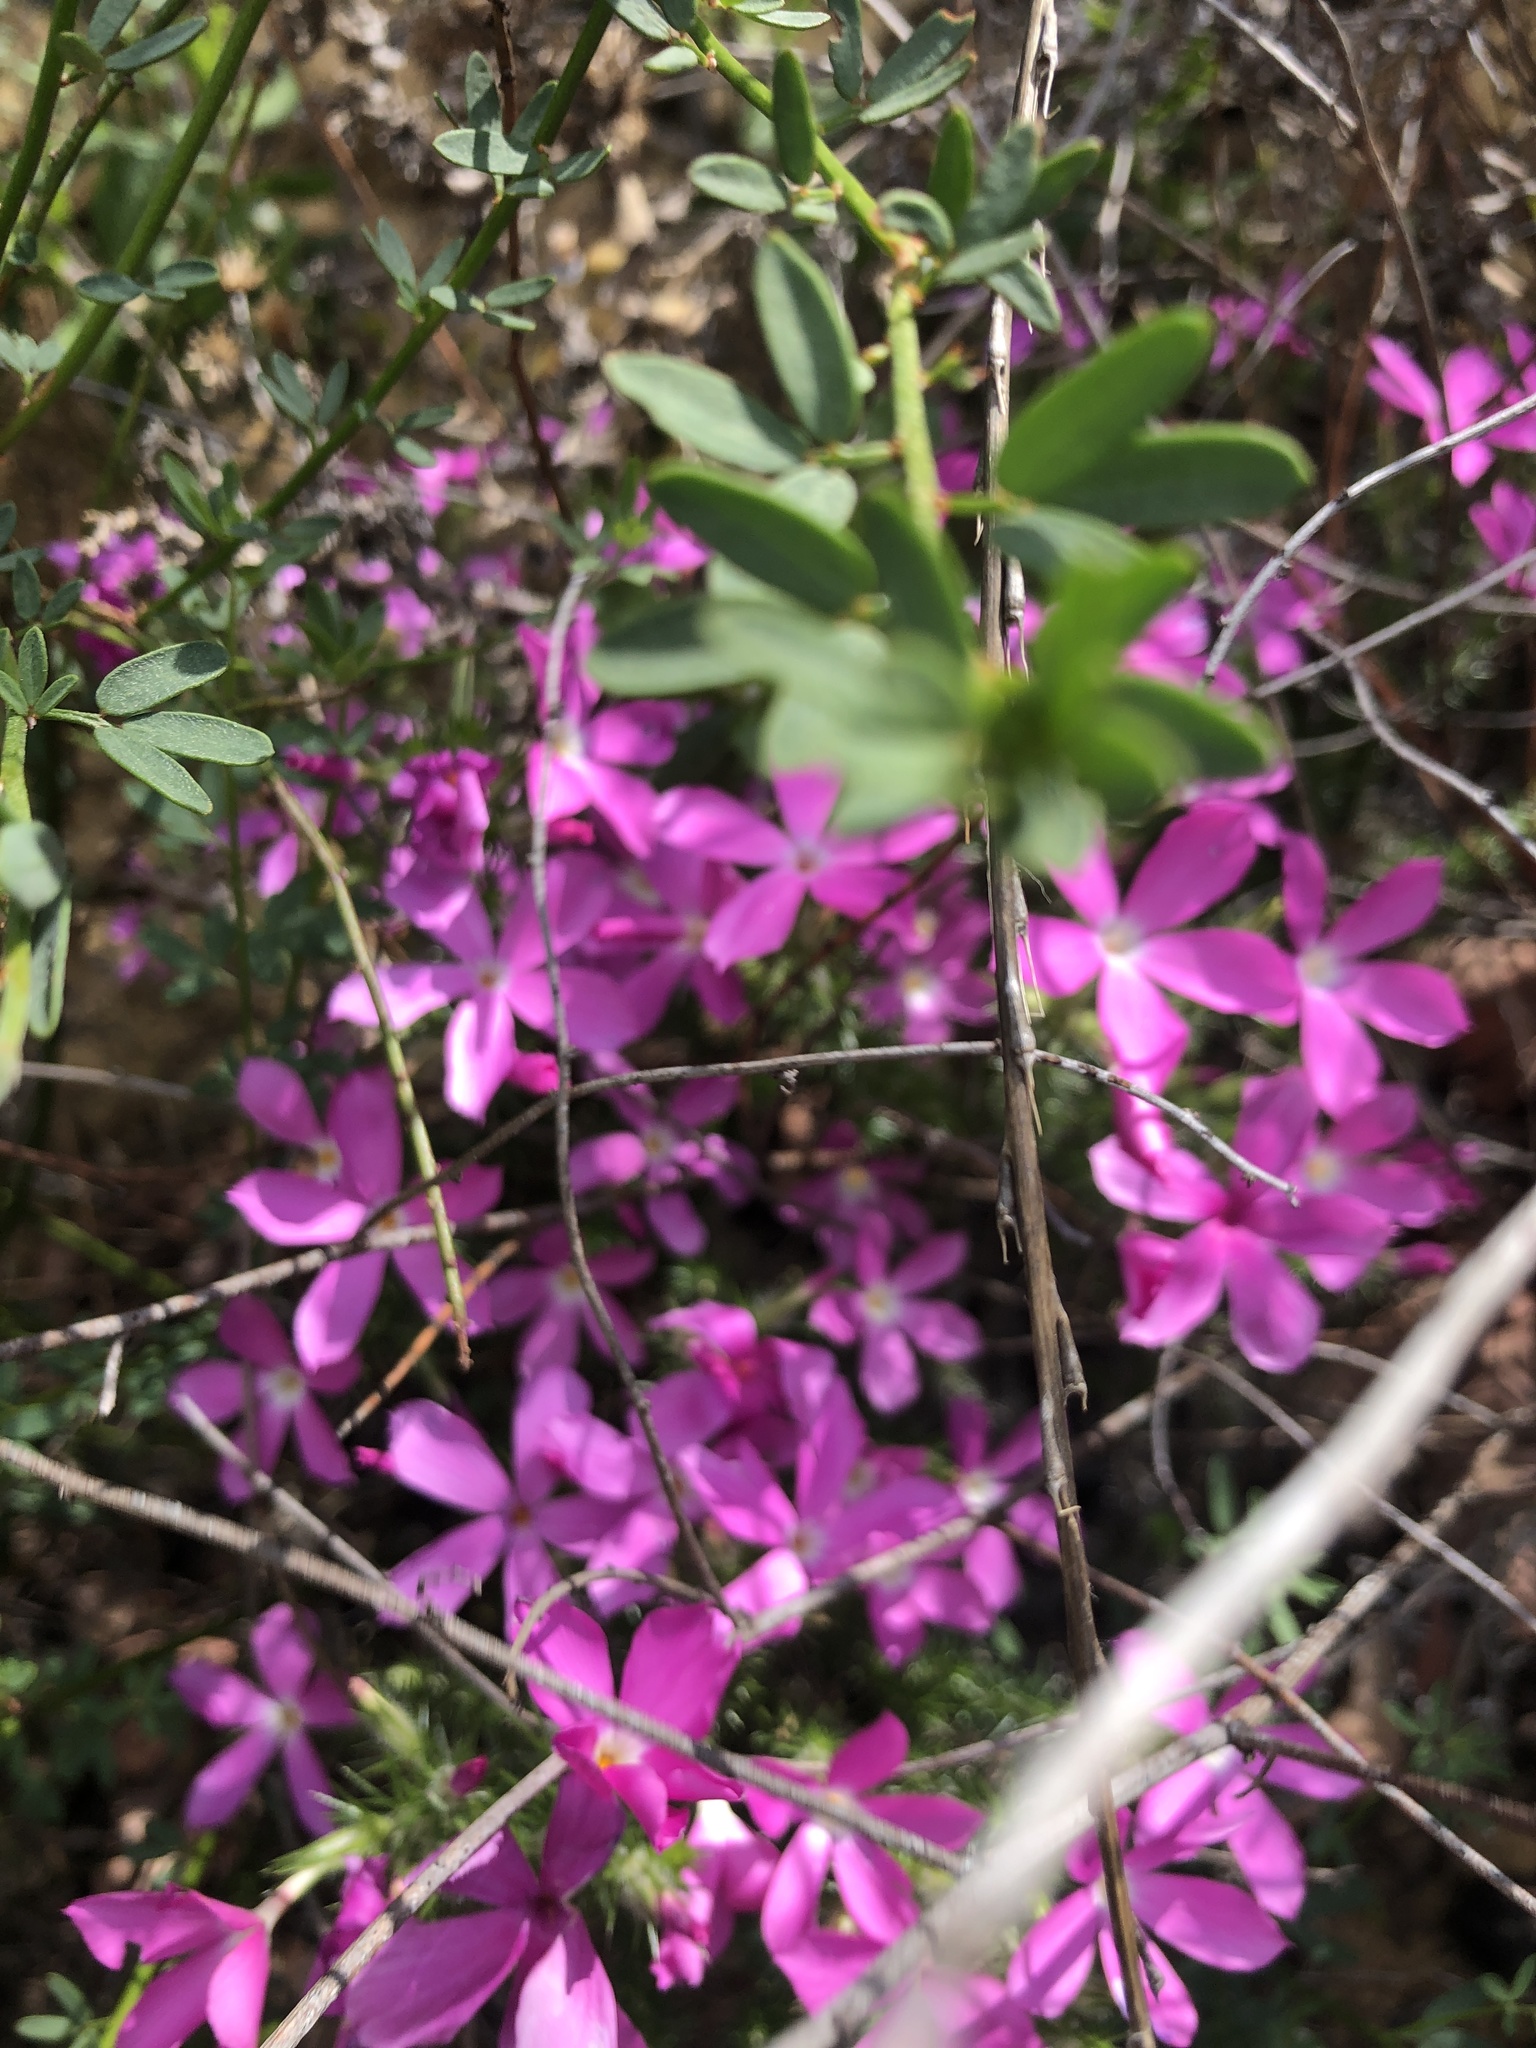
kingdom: Plantae
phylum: Tracheophyta
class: Magnoliopsida
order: Ericales
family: Polemoniaceae
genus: Linanthus
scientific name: Linanthus californicus
